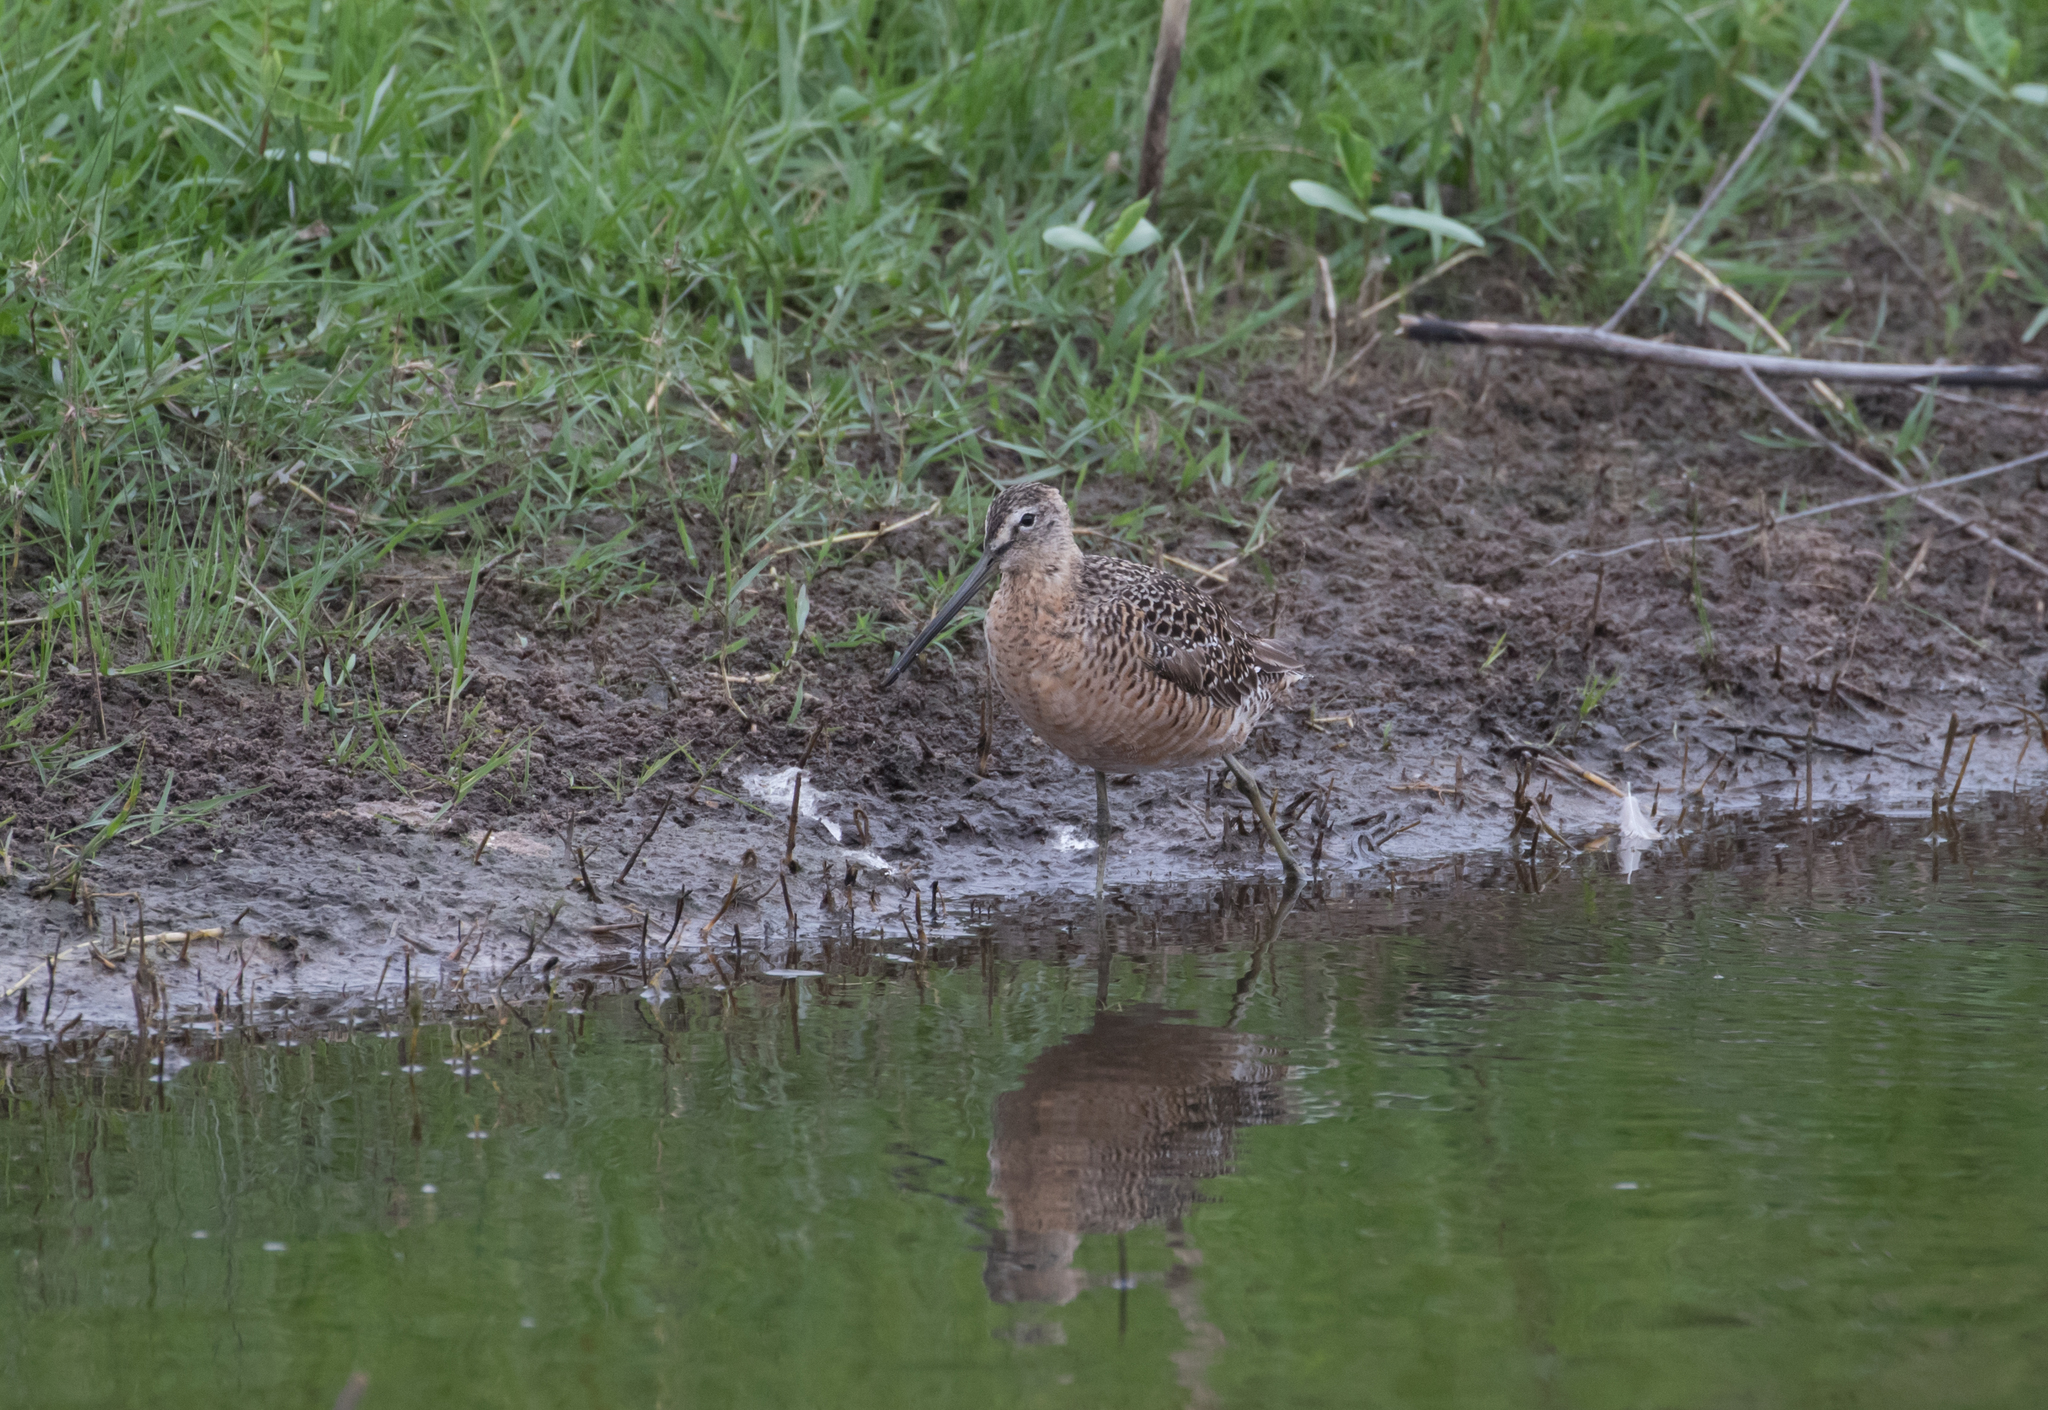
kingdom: Animalia
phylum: Chordata
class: Aves
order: Charadriiformes
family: Scolopacidae
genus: Limnodromus
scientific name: Limnodromus scolopaceus
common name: Long-billed dowitcher
